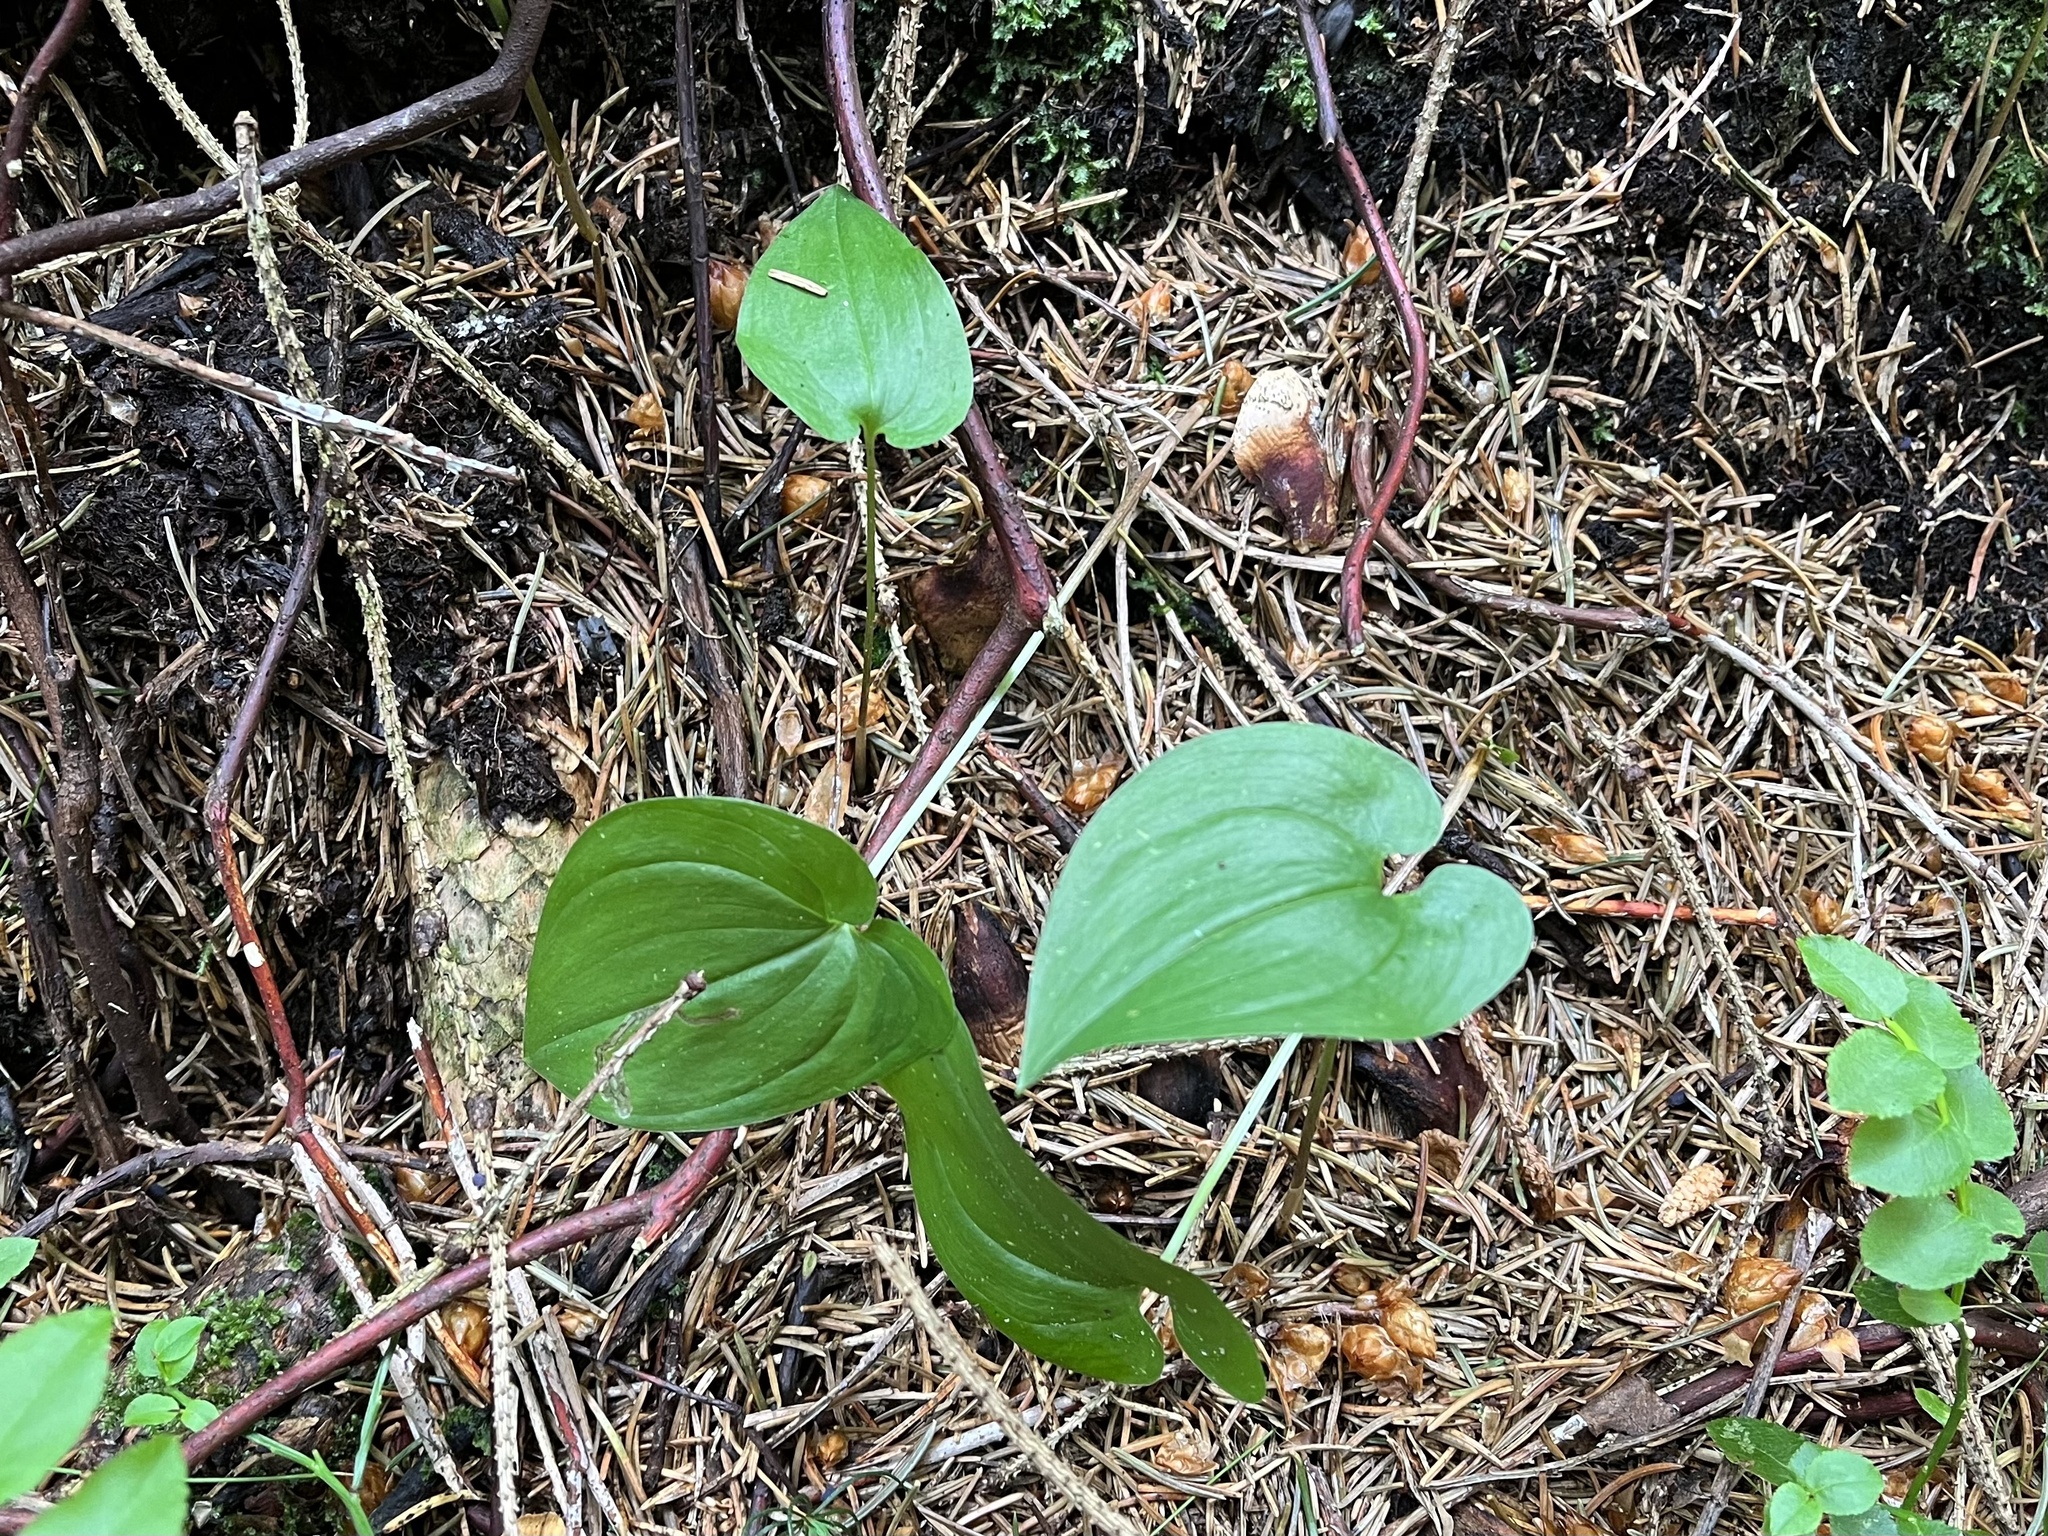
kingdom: Plantae
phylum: Tracheophyta
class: Liliopsida
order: Asparagales
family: Asparagaceae
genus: Maianthemum
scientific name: Maianthemum bifolium
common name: May lily
